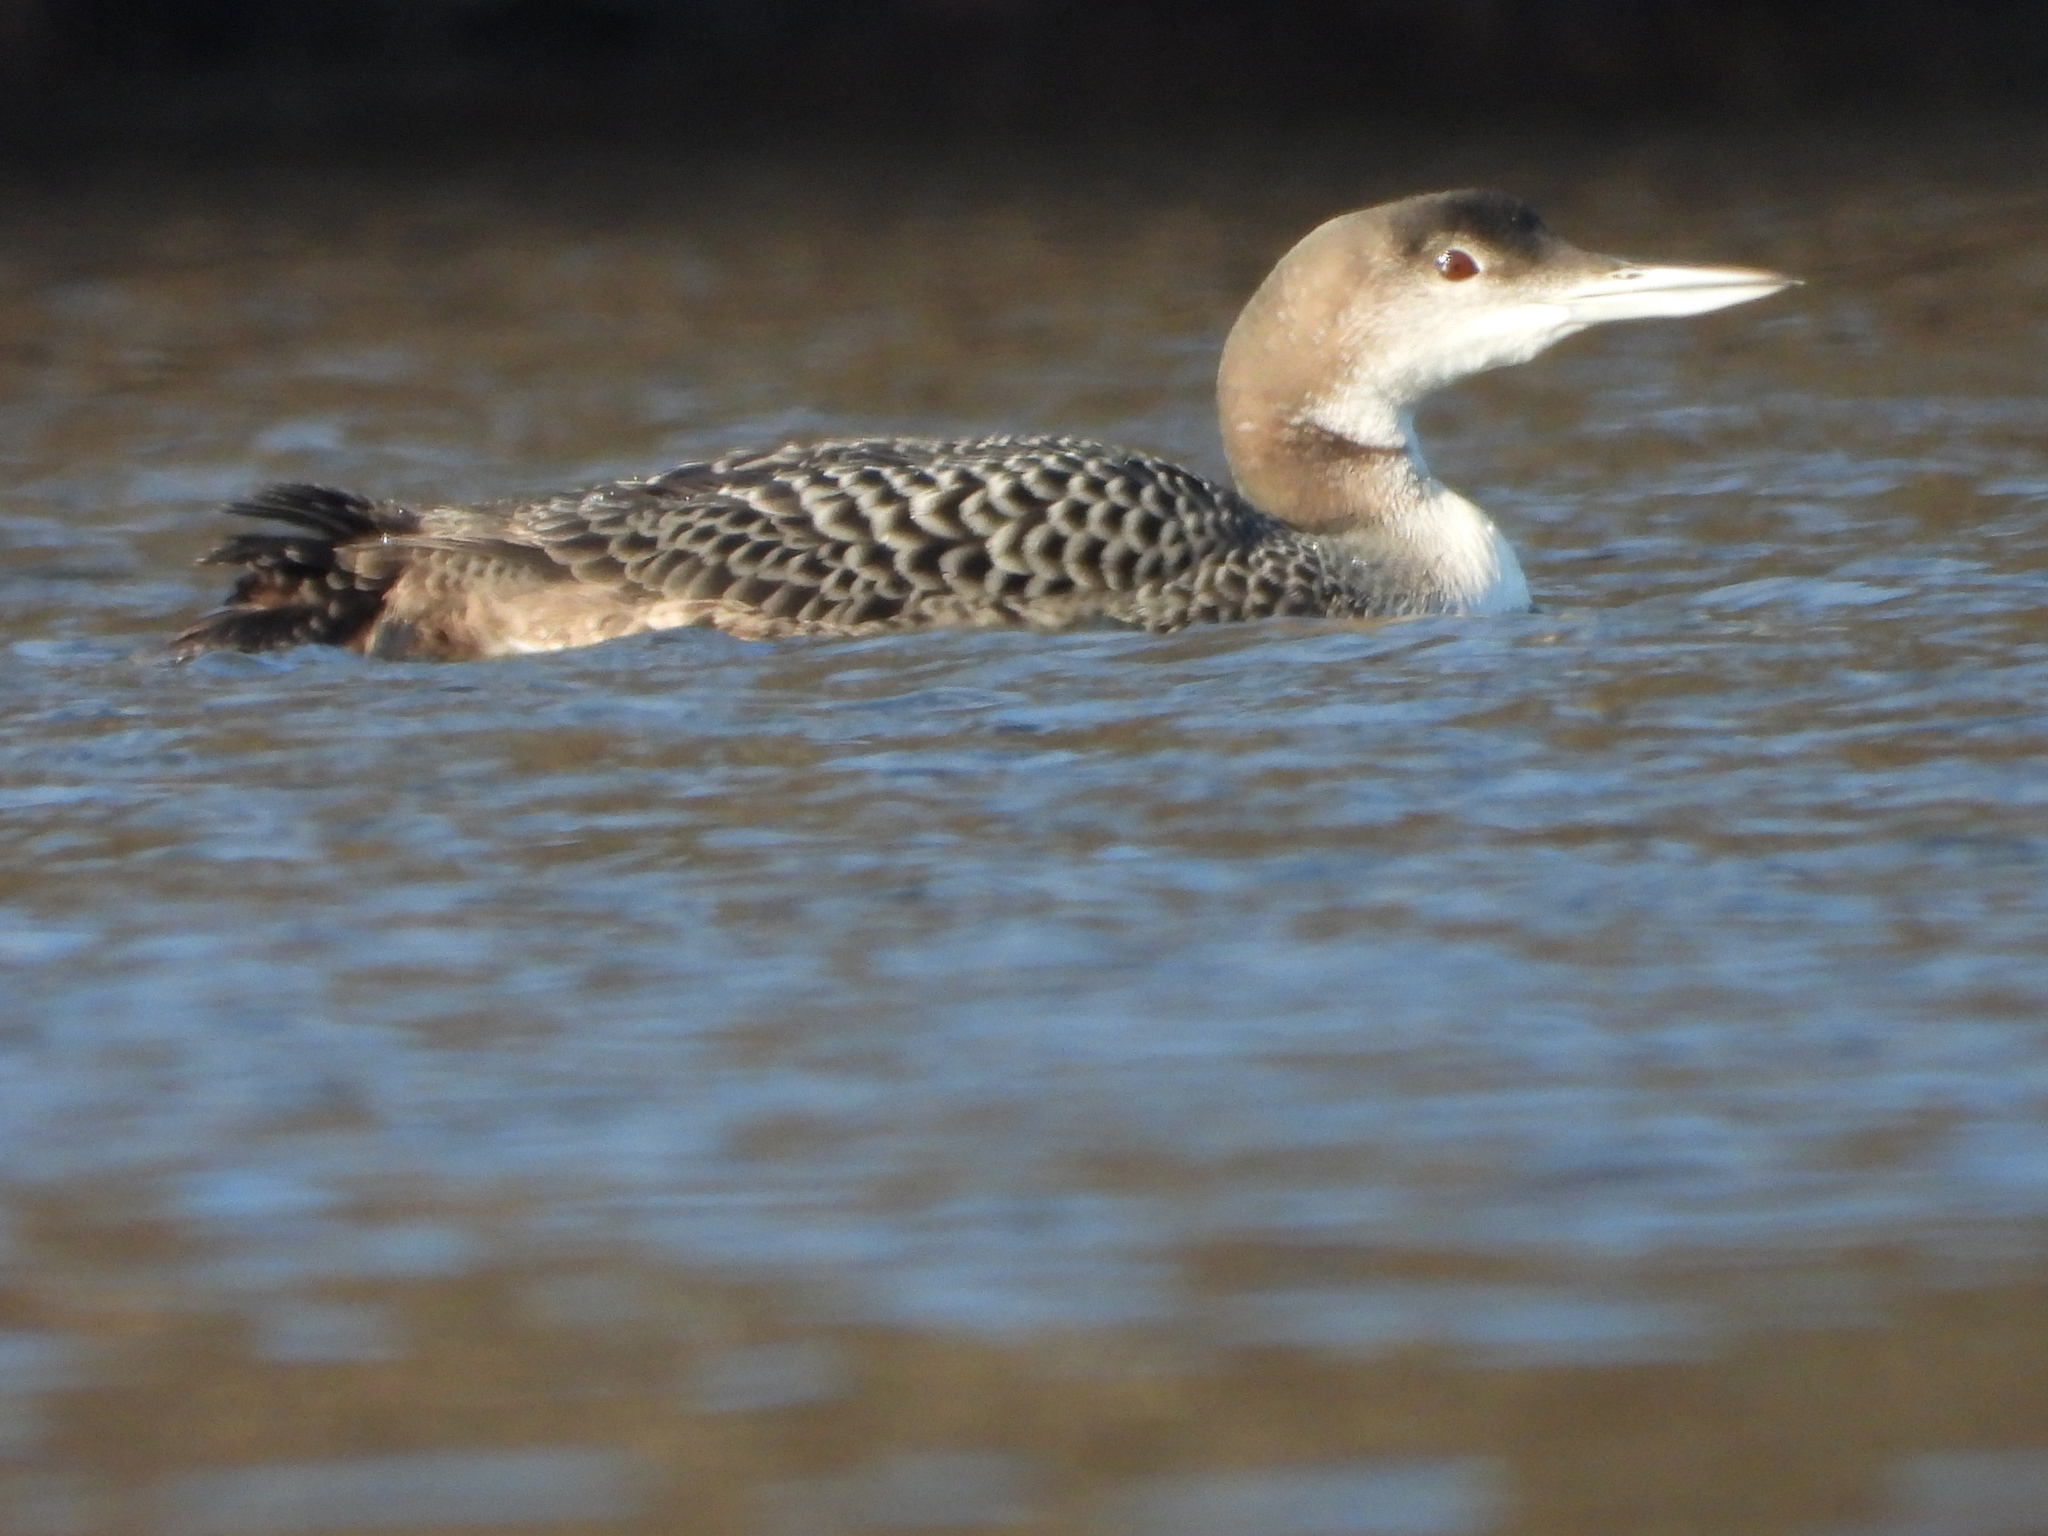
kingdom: Animalia
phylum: Chordata
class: Aves
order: Gaviiformes
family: Gaviidae
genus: Gavia
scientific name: Gavia immer
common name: Common loon
